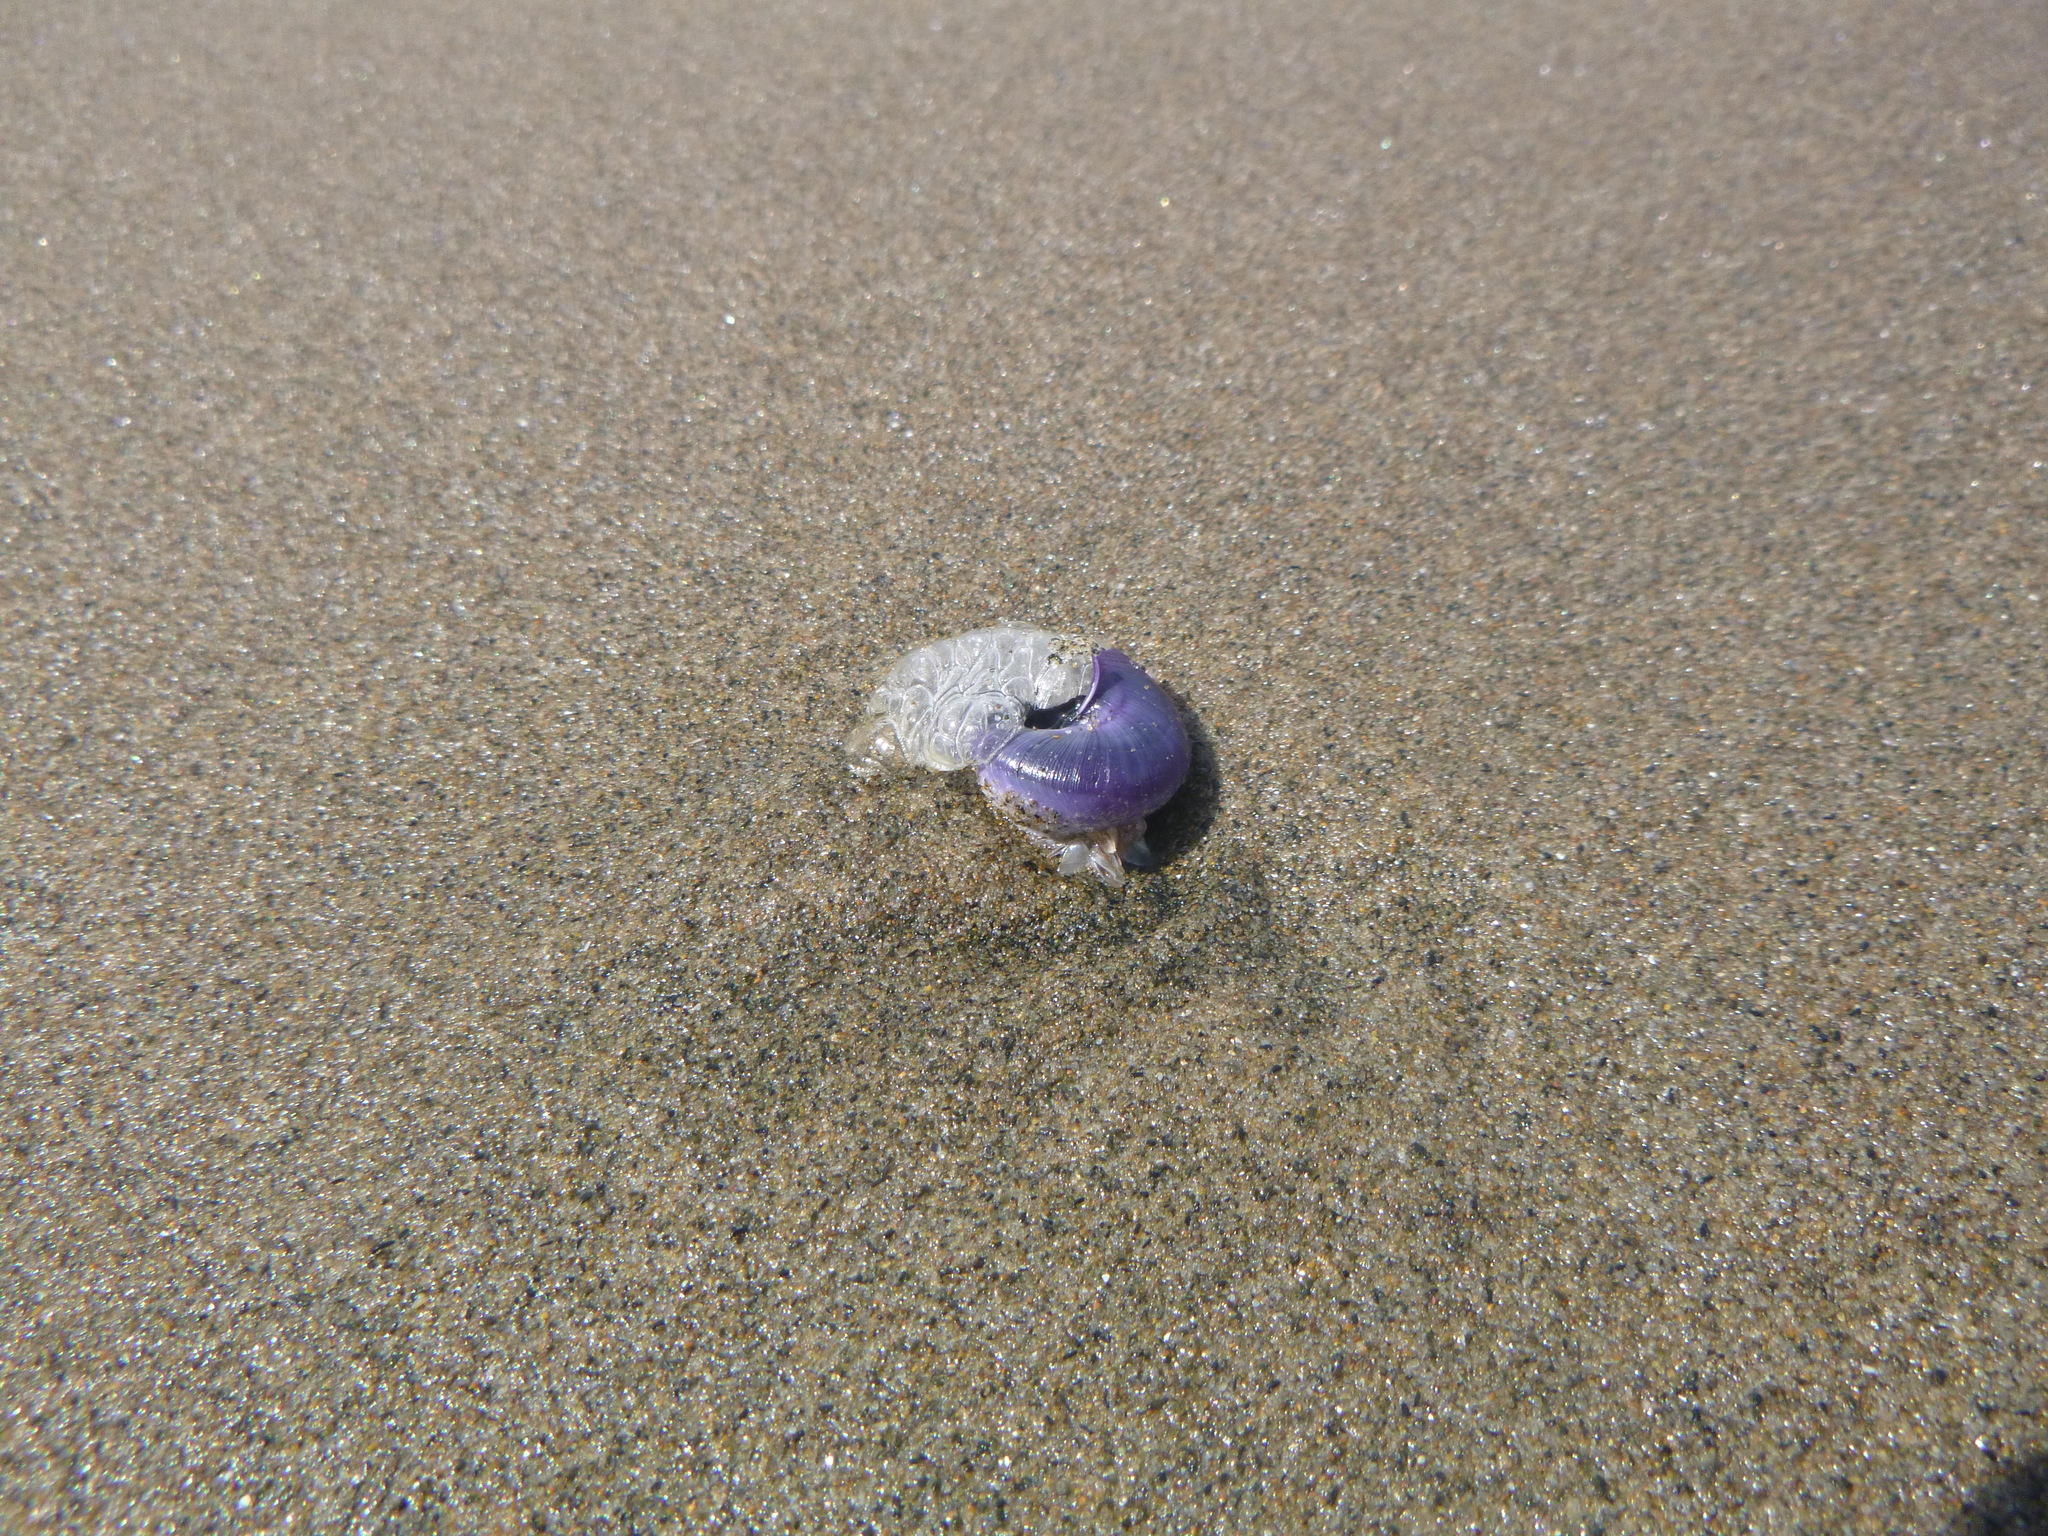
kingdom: Animalia
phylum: Mollusca
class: Gastropoda
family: Epitoniidae
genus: Janthina
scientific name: Janthina janthina
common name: Common janthina
